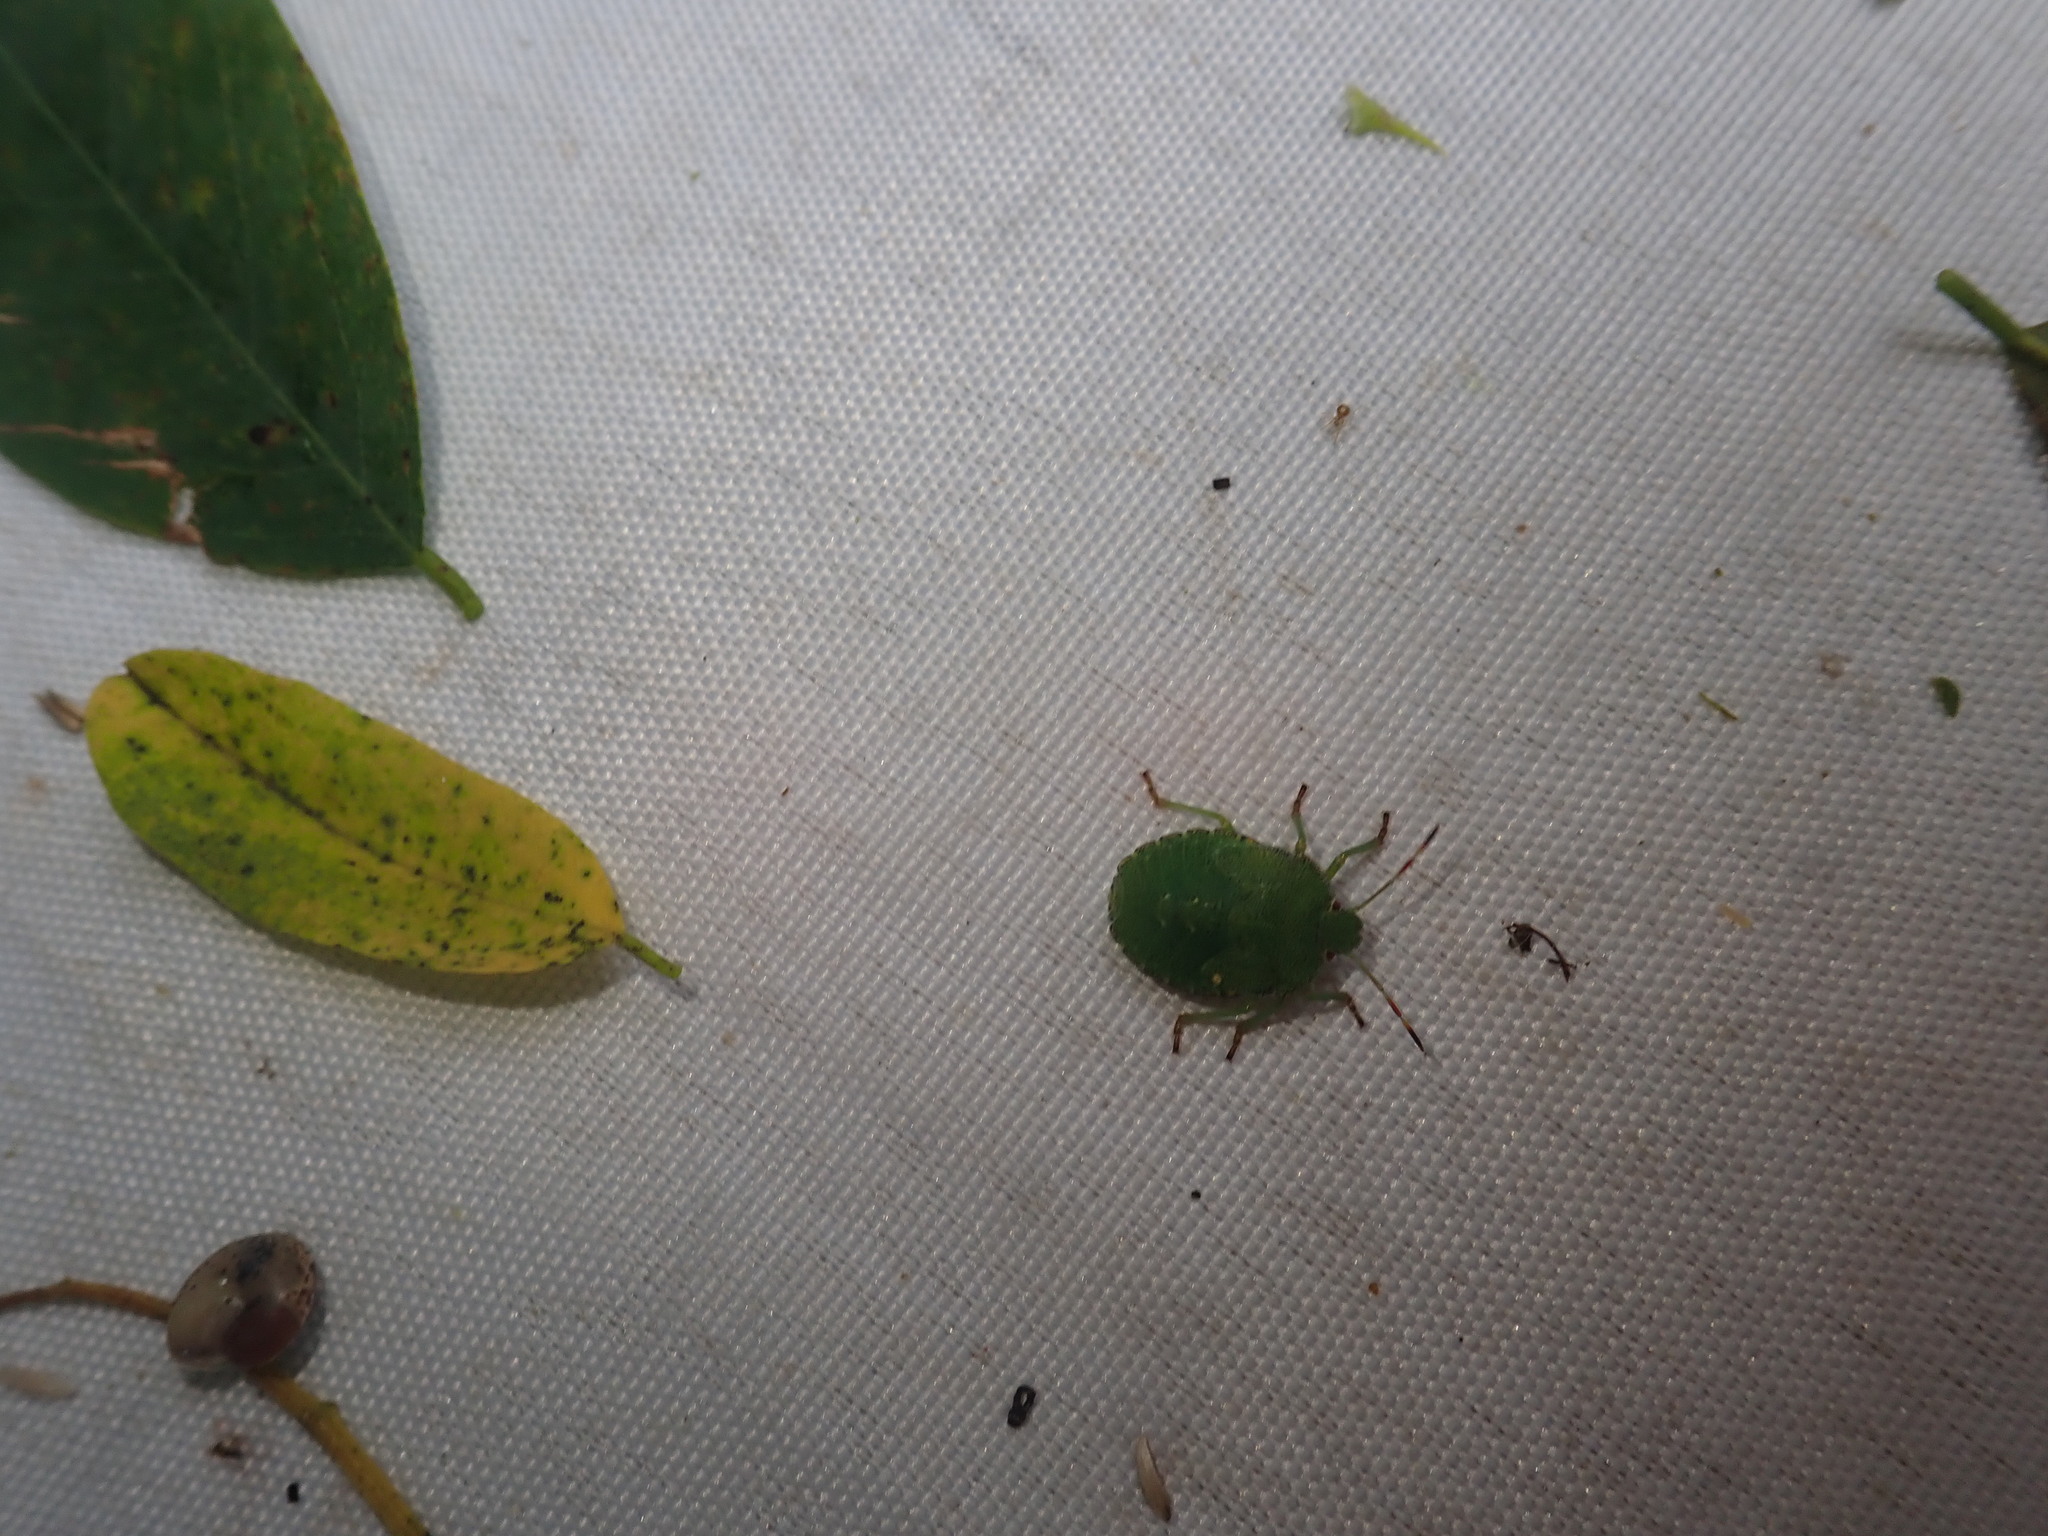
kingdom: Animalia
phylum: Arthropoda
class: Insecta
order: Hemiptera
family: Pentatomidae
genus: Palomena
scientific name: Palomena prasina
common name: Green shieldbug
